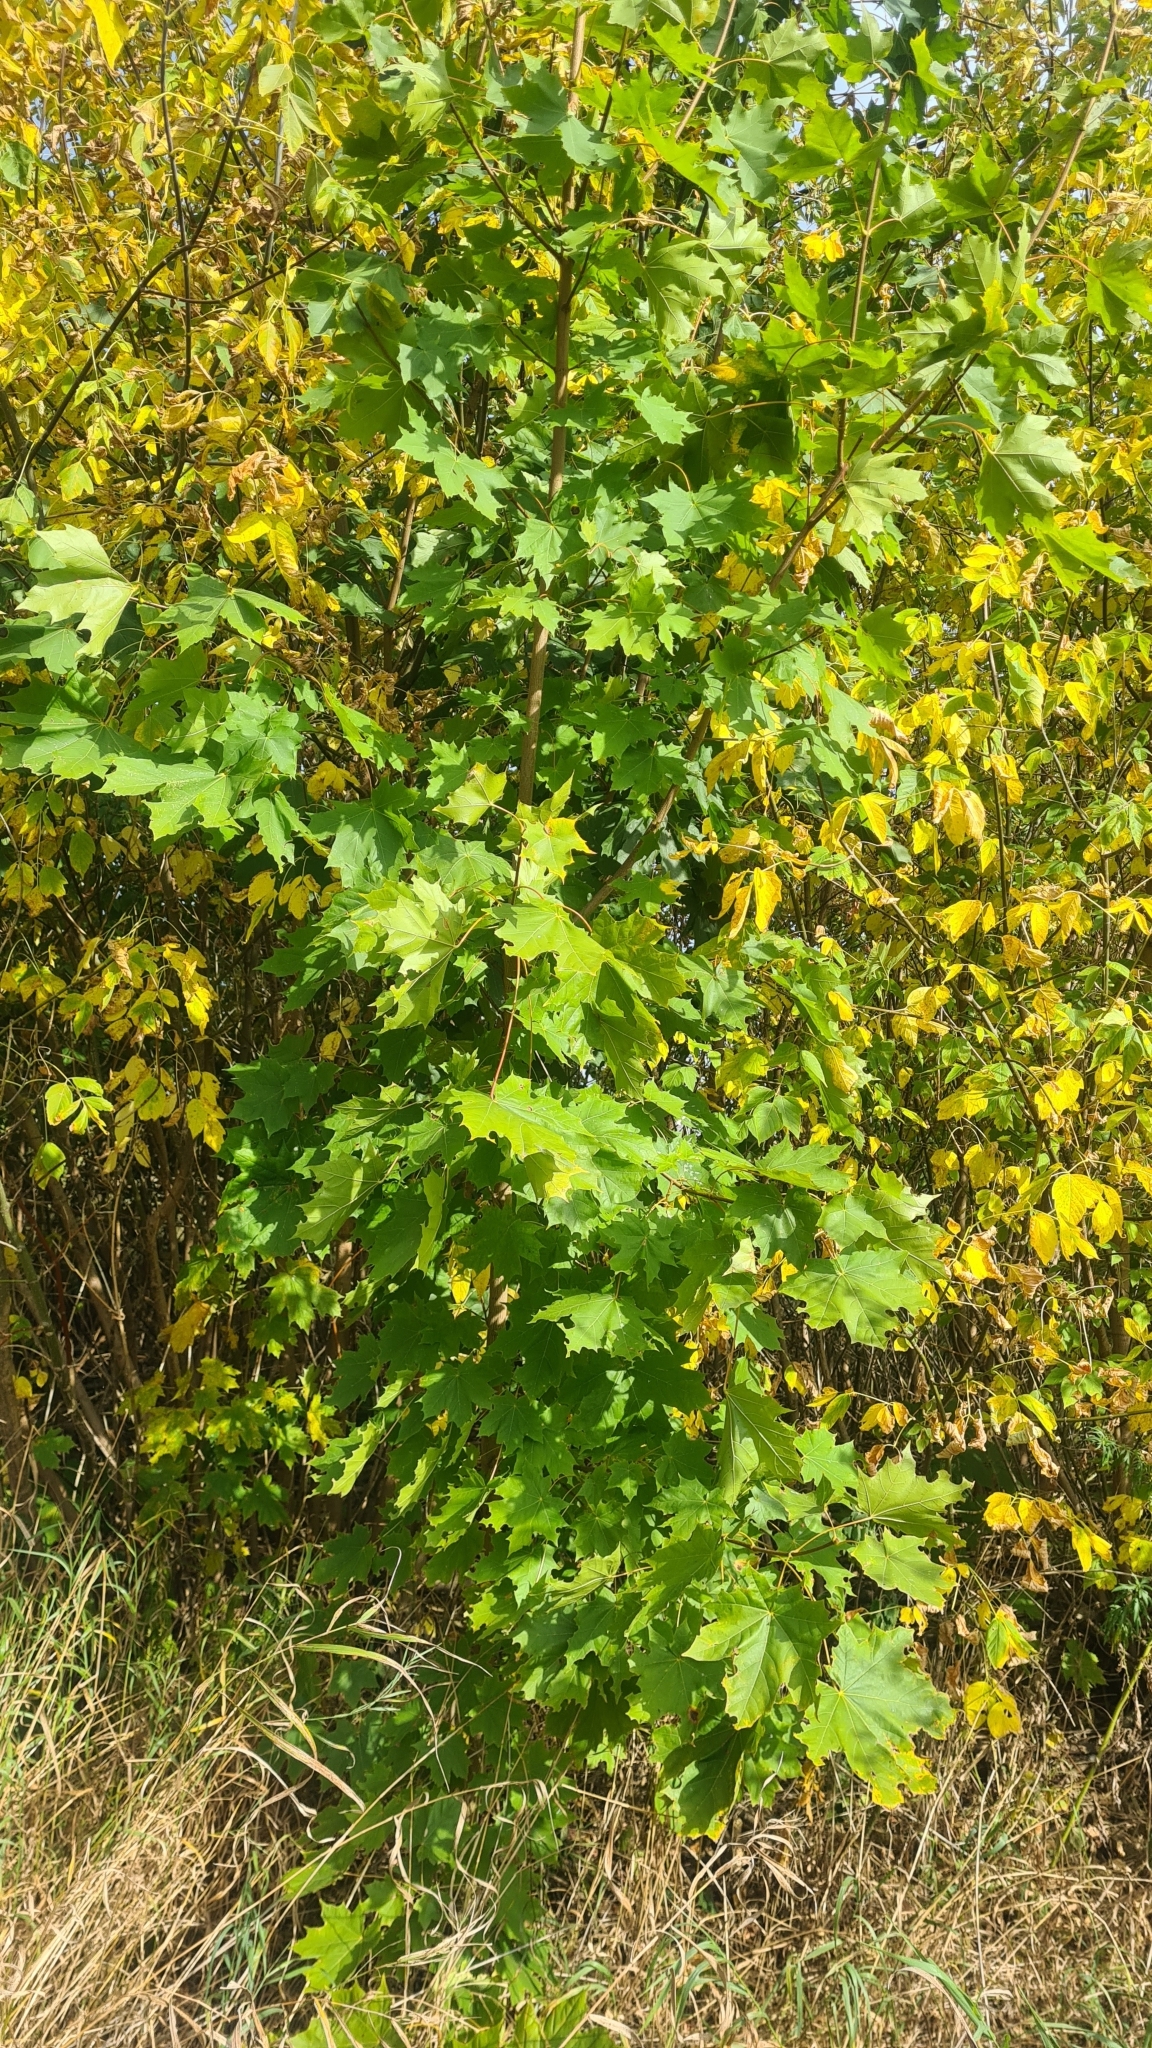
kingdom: Plantae
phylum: Tracheophyta
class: Magnoliopsida
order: Sapindales
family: Sapindaceae
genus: Acer
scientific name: Acer platanoides
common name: Norway maple
